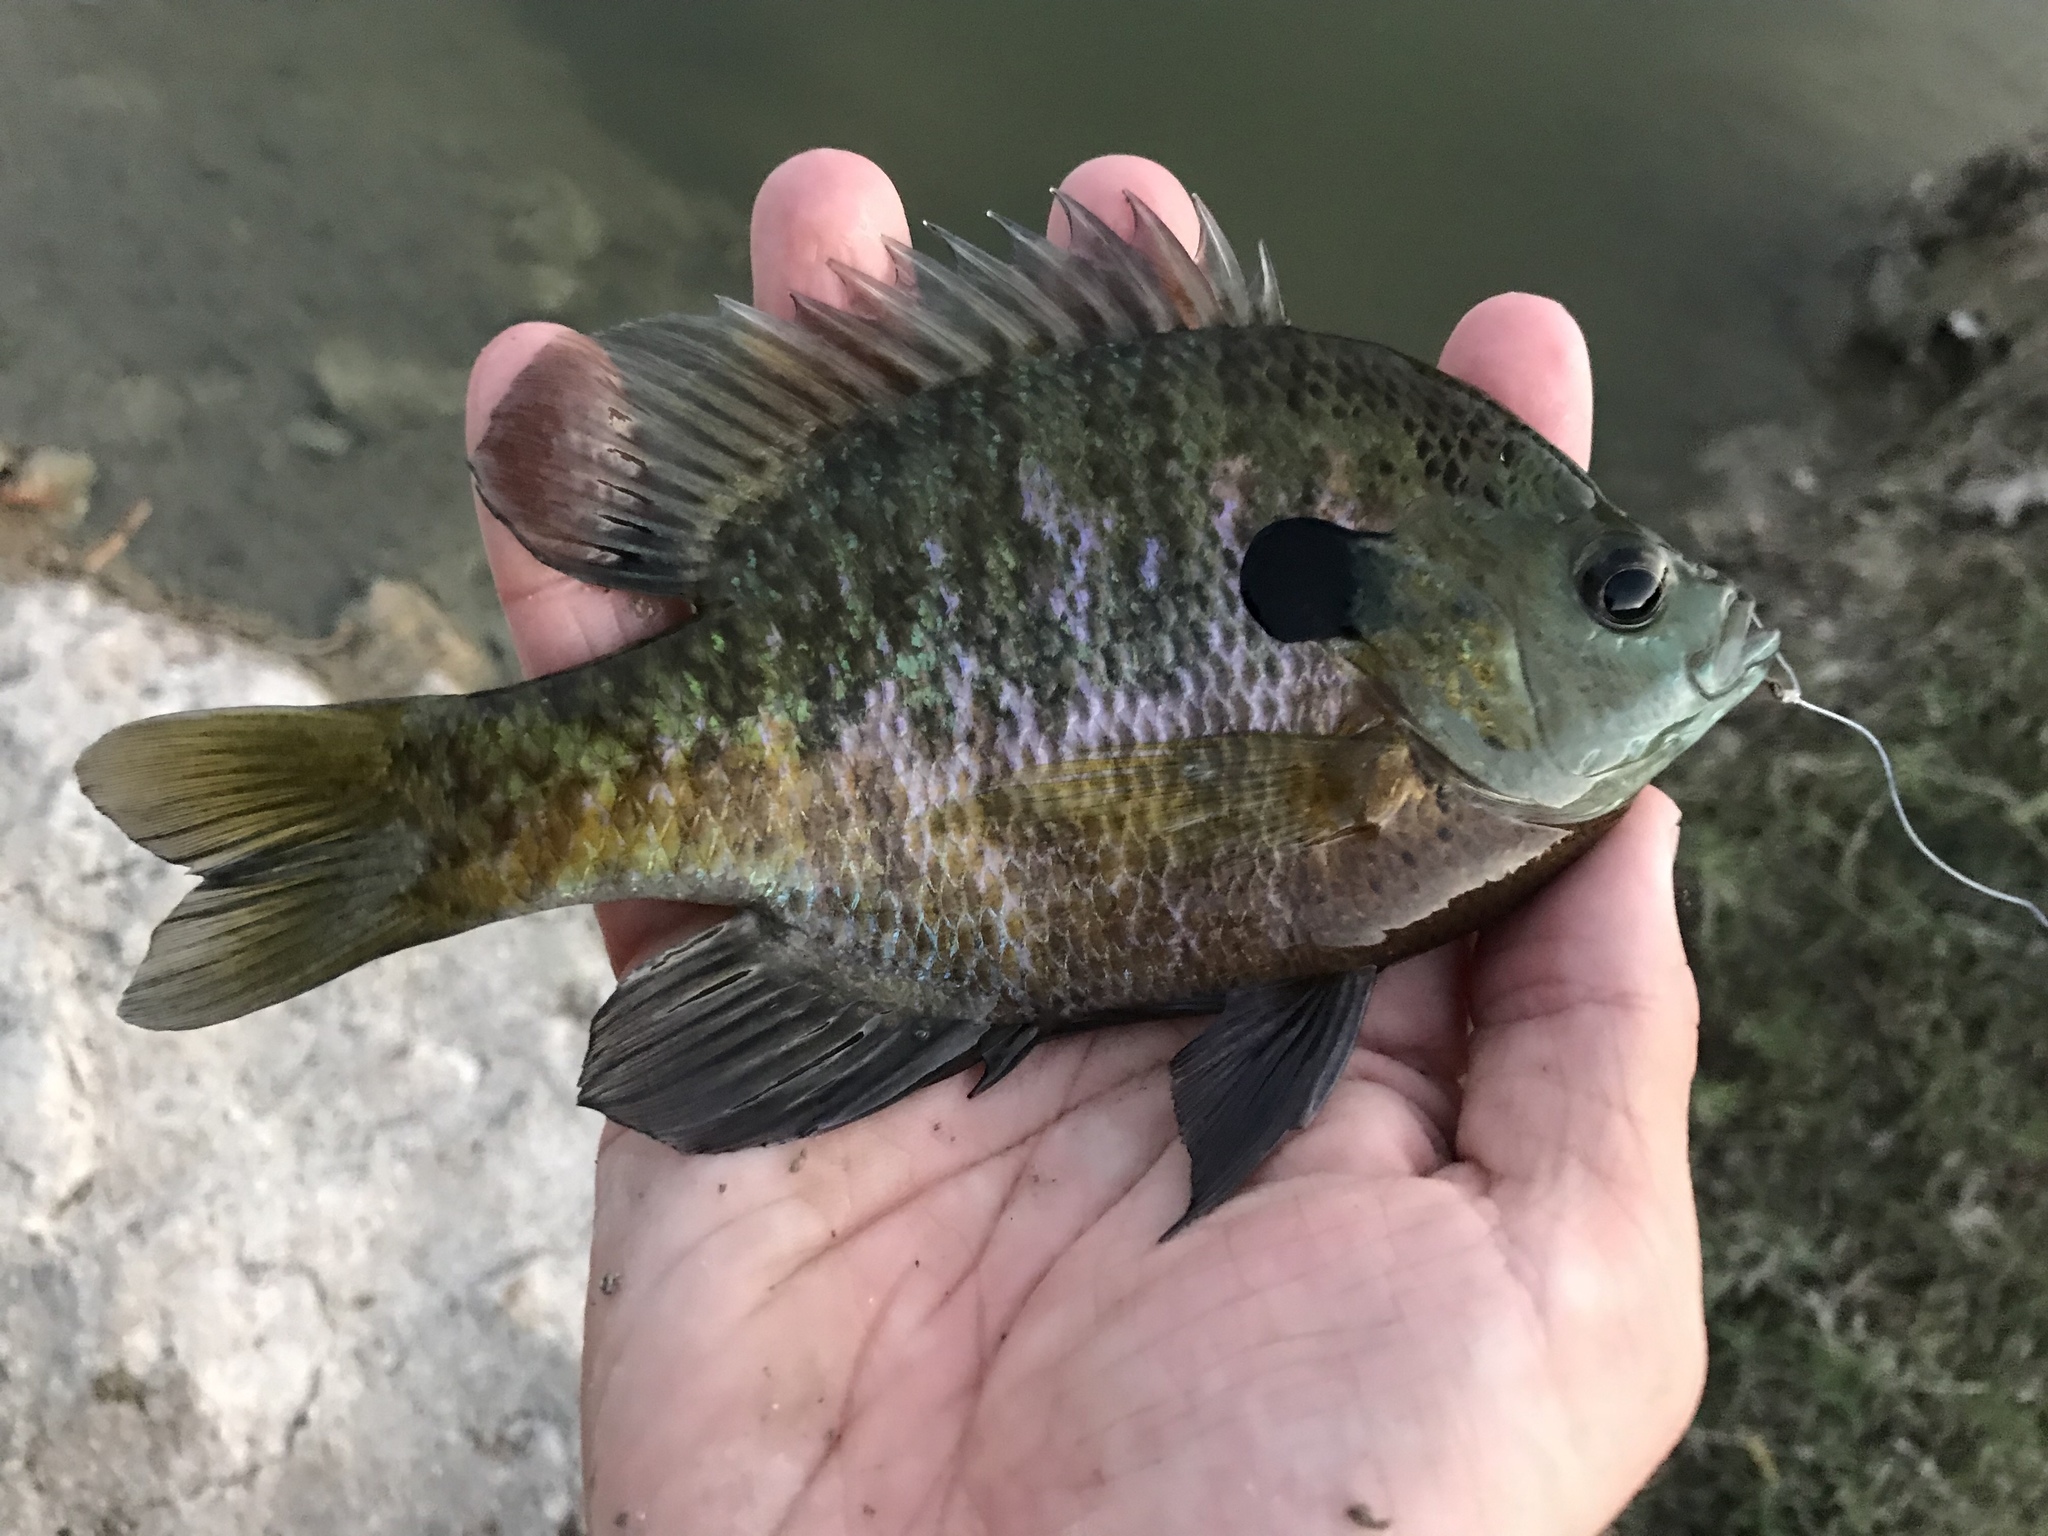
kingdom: Animalia
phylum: Chordata
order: Perciformes
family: Centrarchidae
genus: Lepomis
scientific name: Lepomis macrochirus
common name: Bluegill
